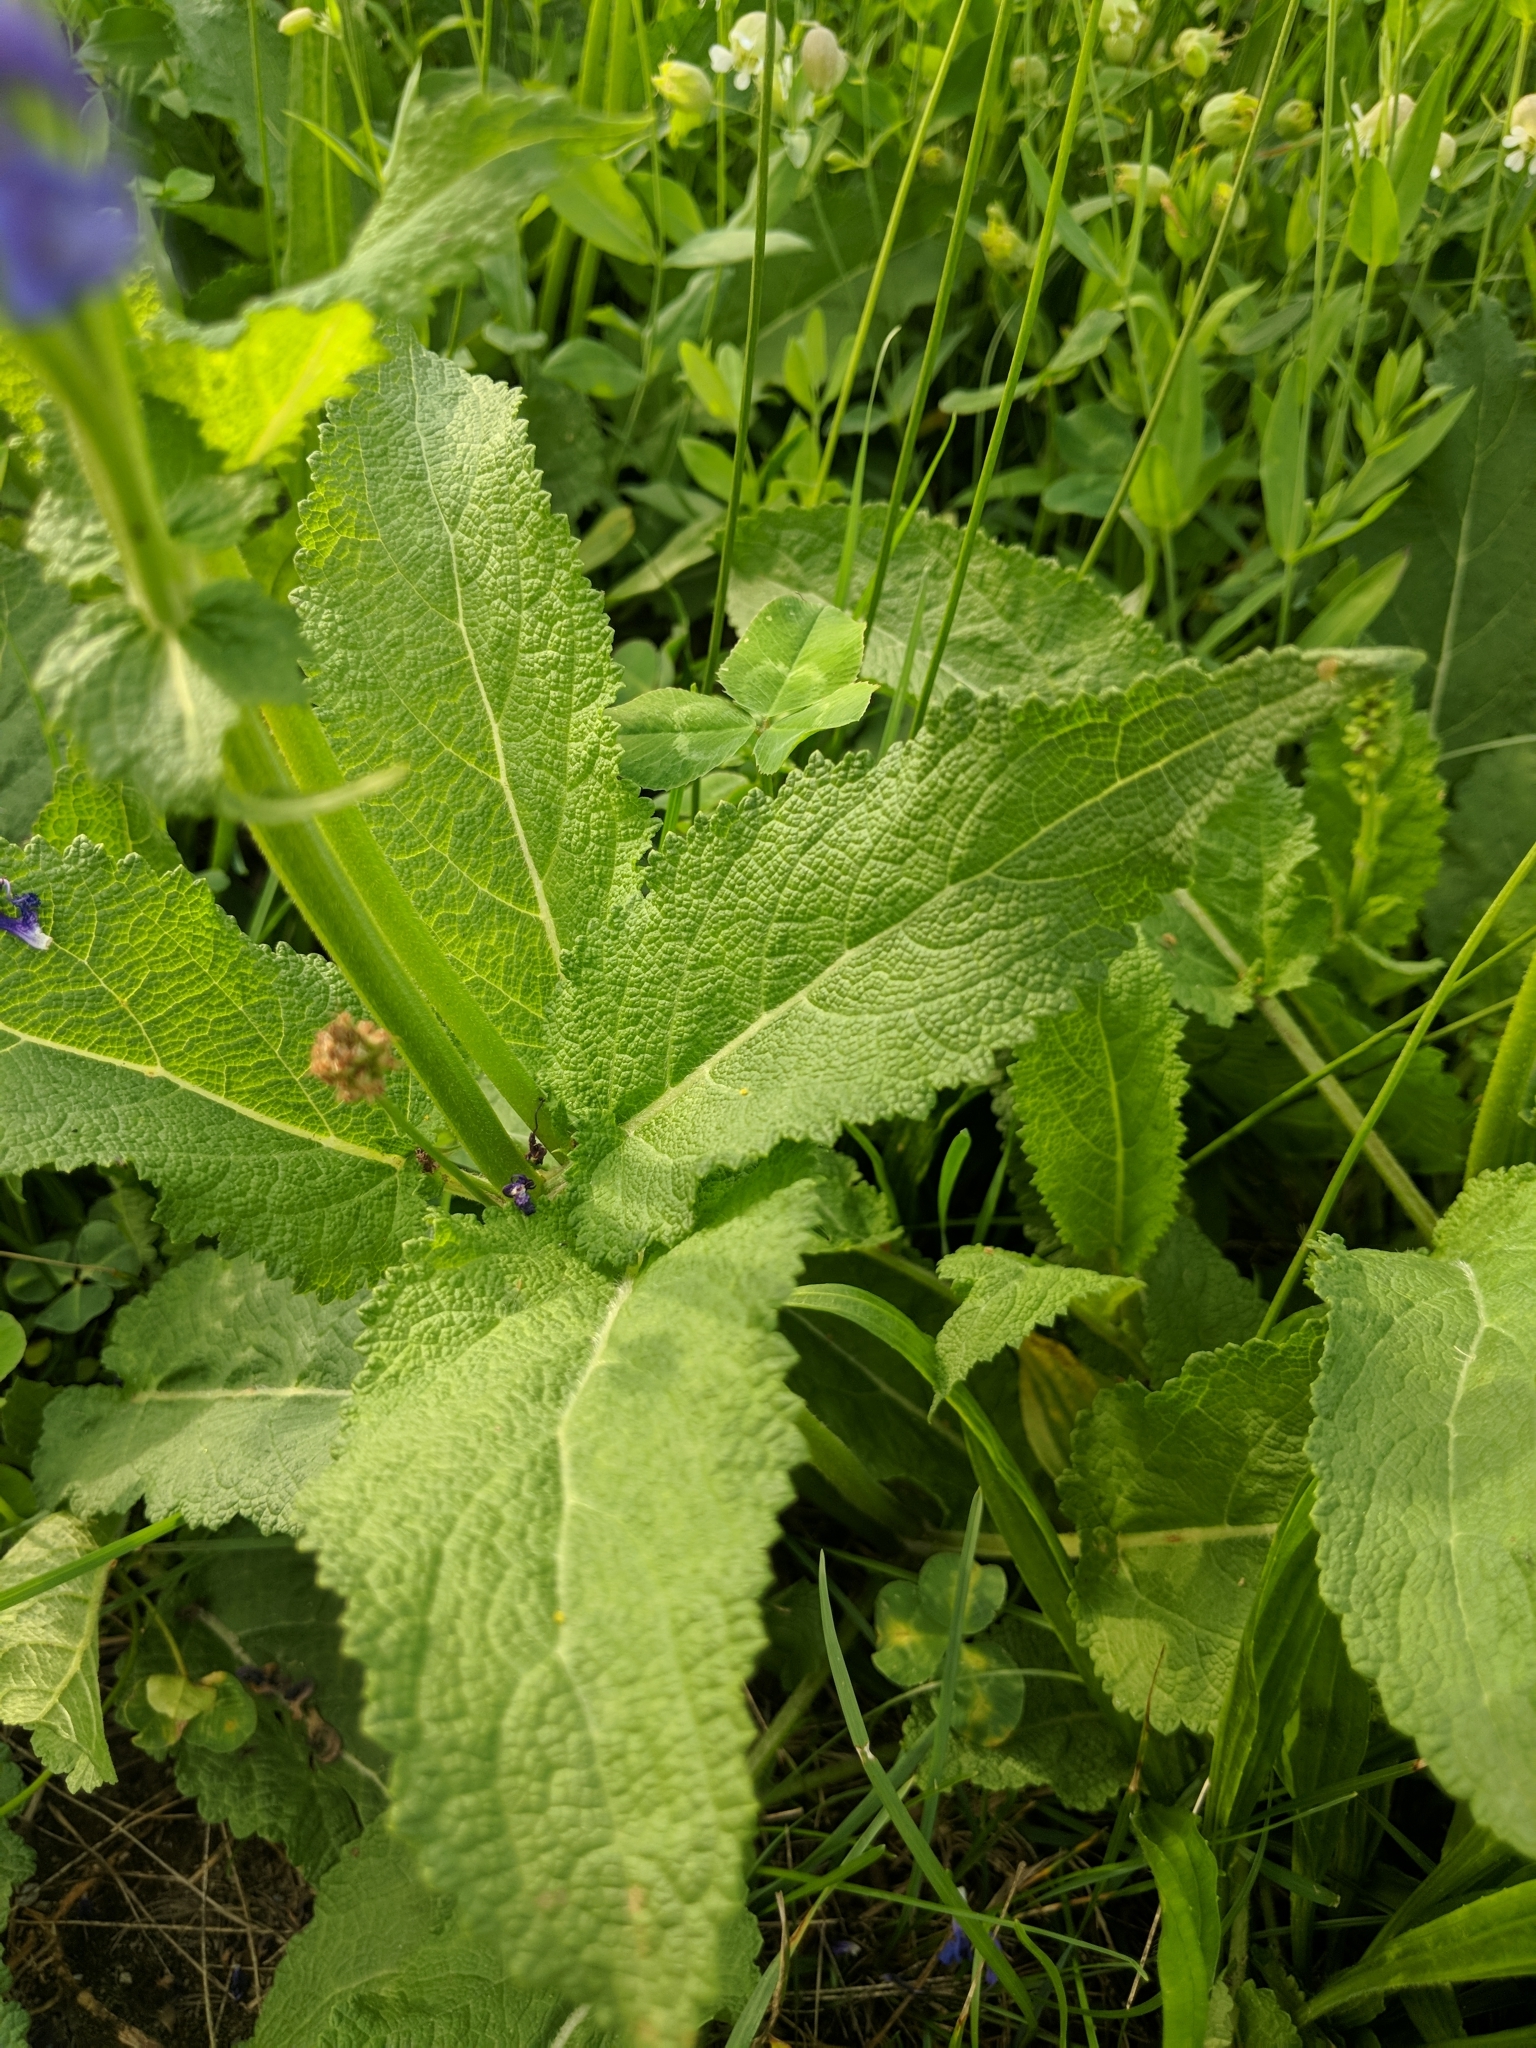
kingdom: Plantae
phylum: Tracheophyta
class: Magnoliopsida
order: Lamiales
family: Lamiaceae
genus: Salvia
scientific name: Salvia pratensis
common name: Meadow sage
